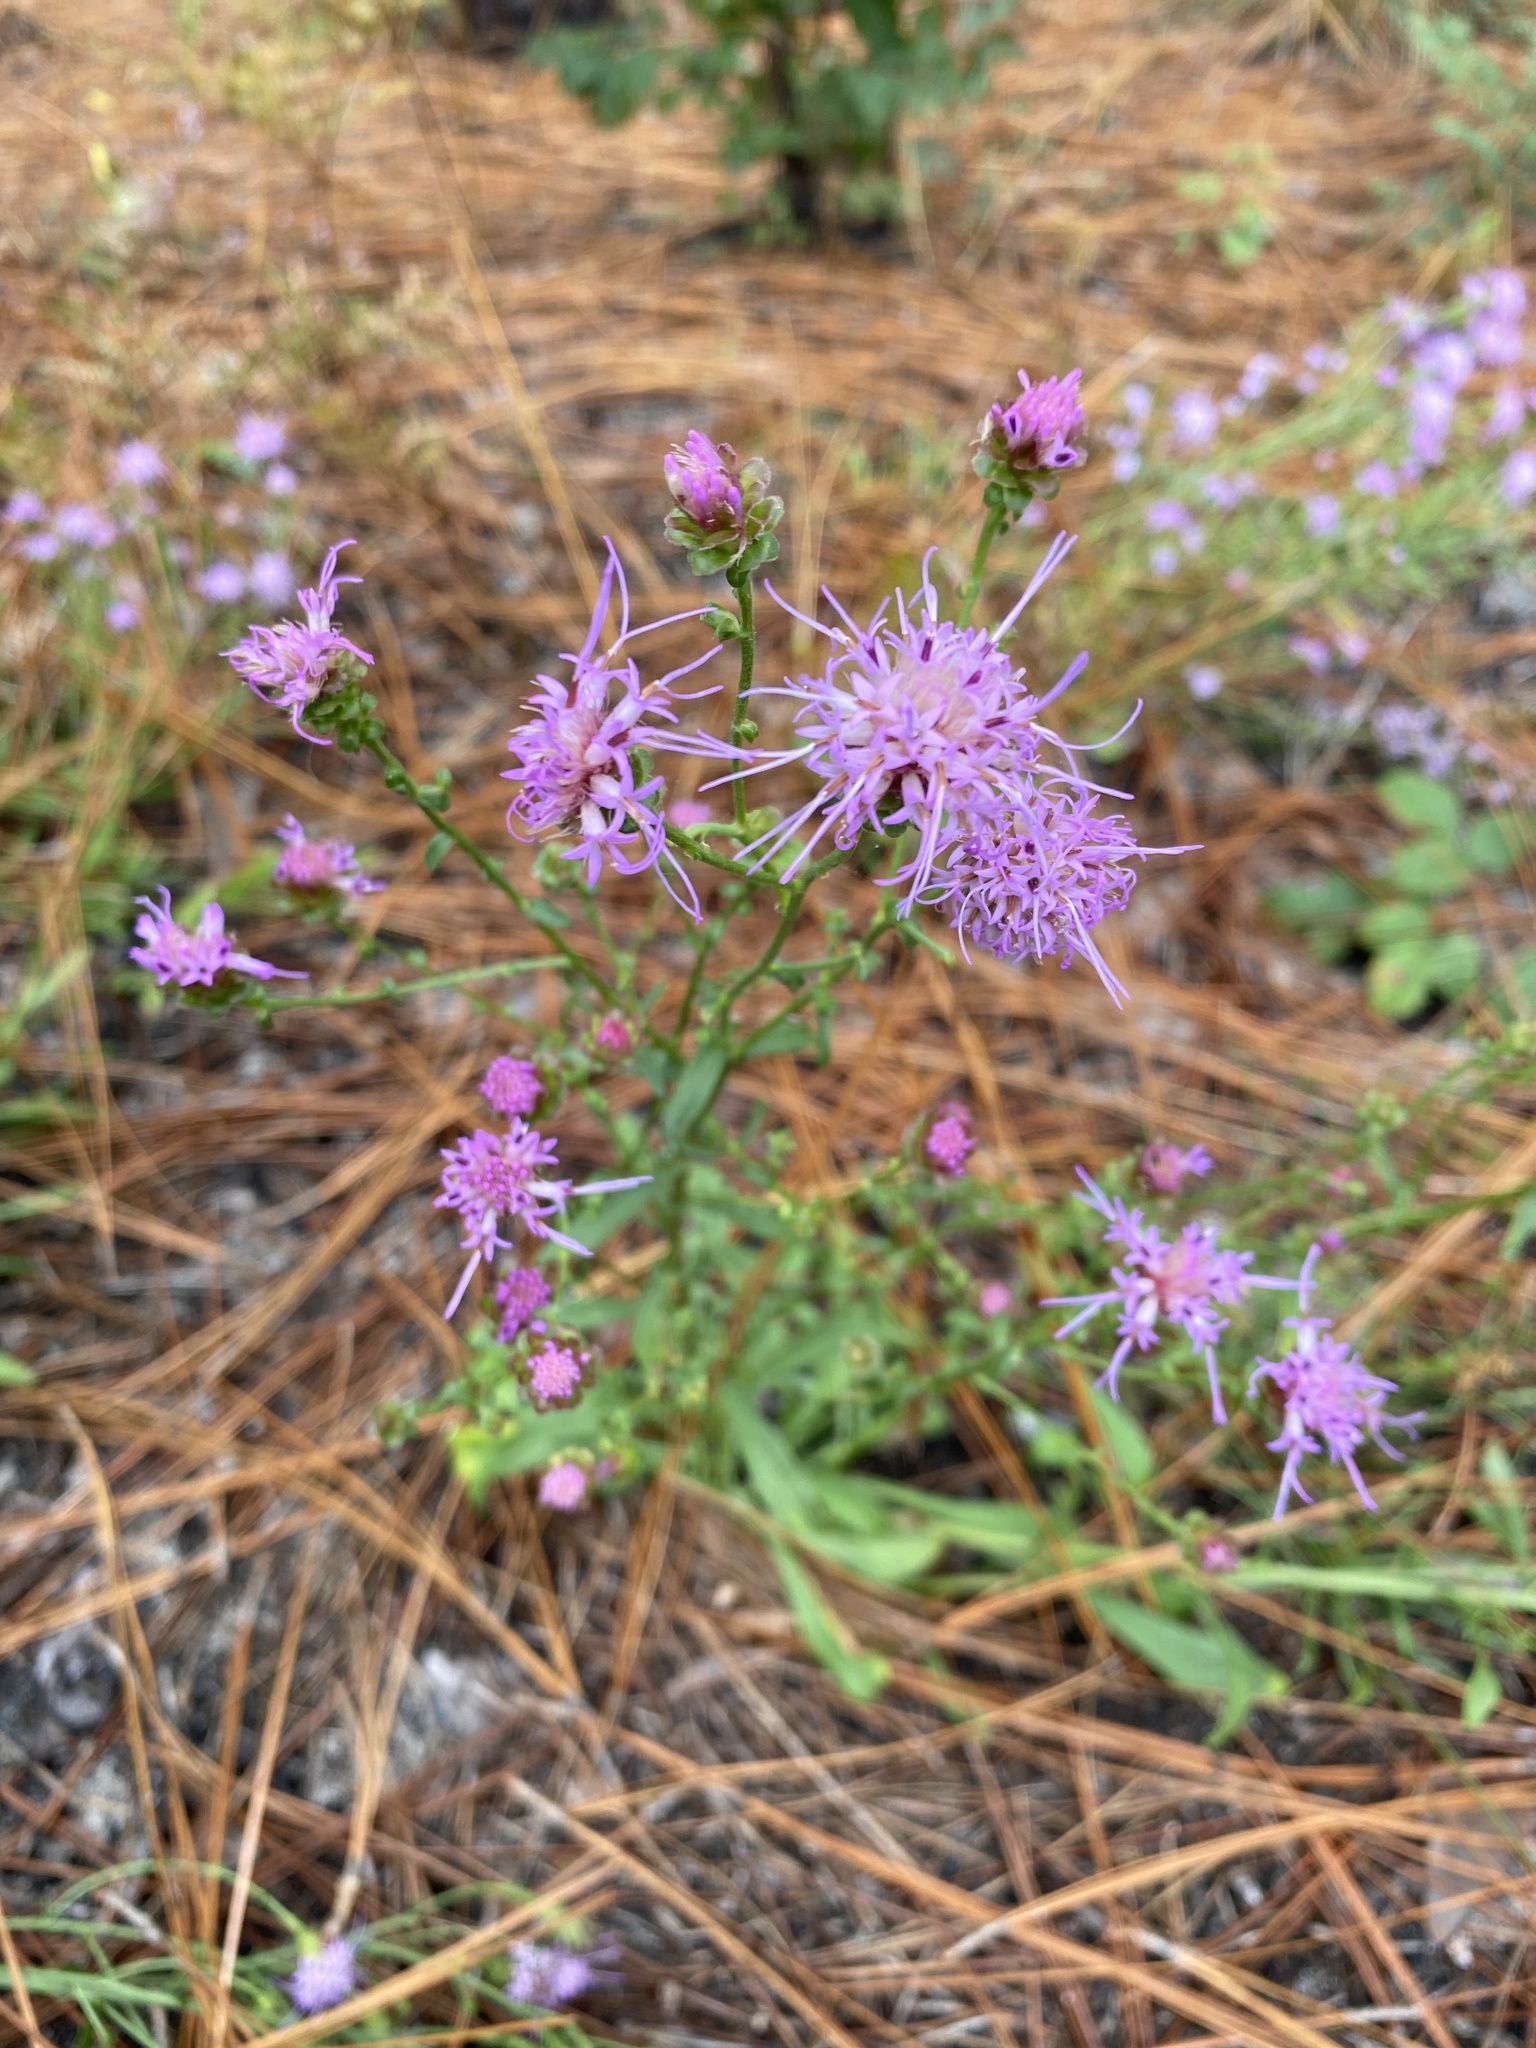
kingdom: Plantae
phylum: Tracheophyta
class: Magnoliopsida
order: Asterales
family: Asteraceae
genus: Carphephorus
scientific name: Carphephorus bellidifolius
